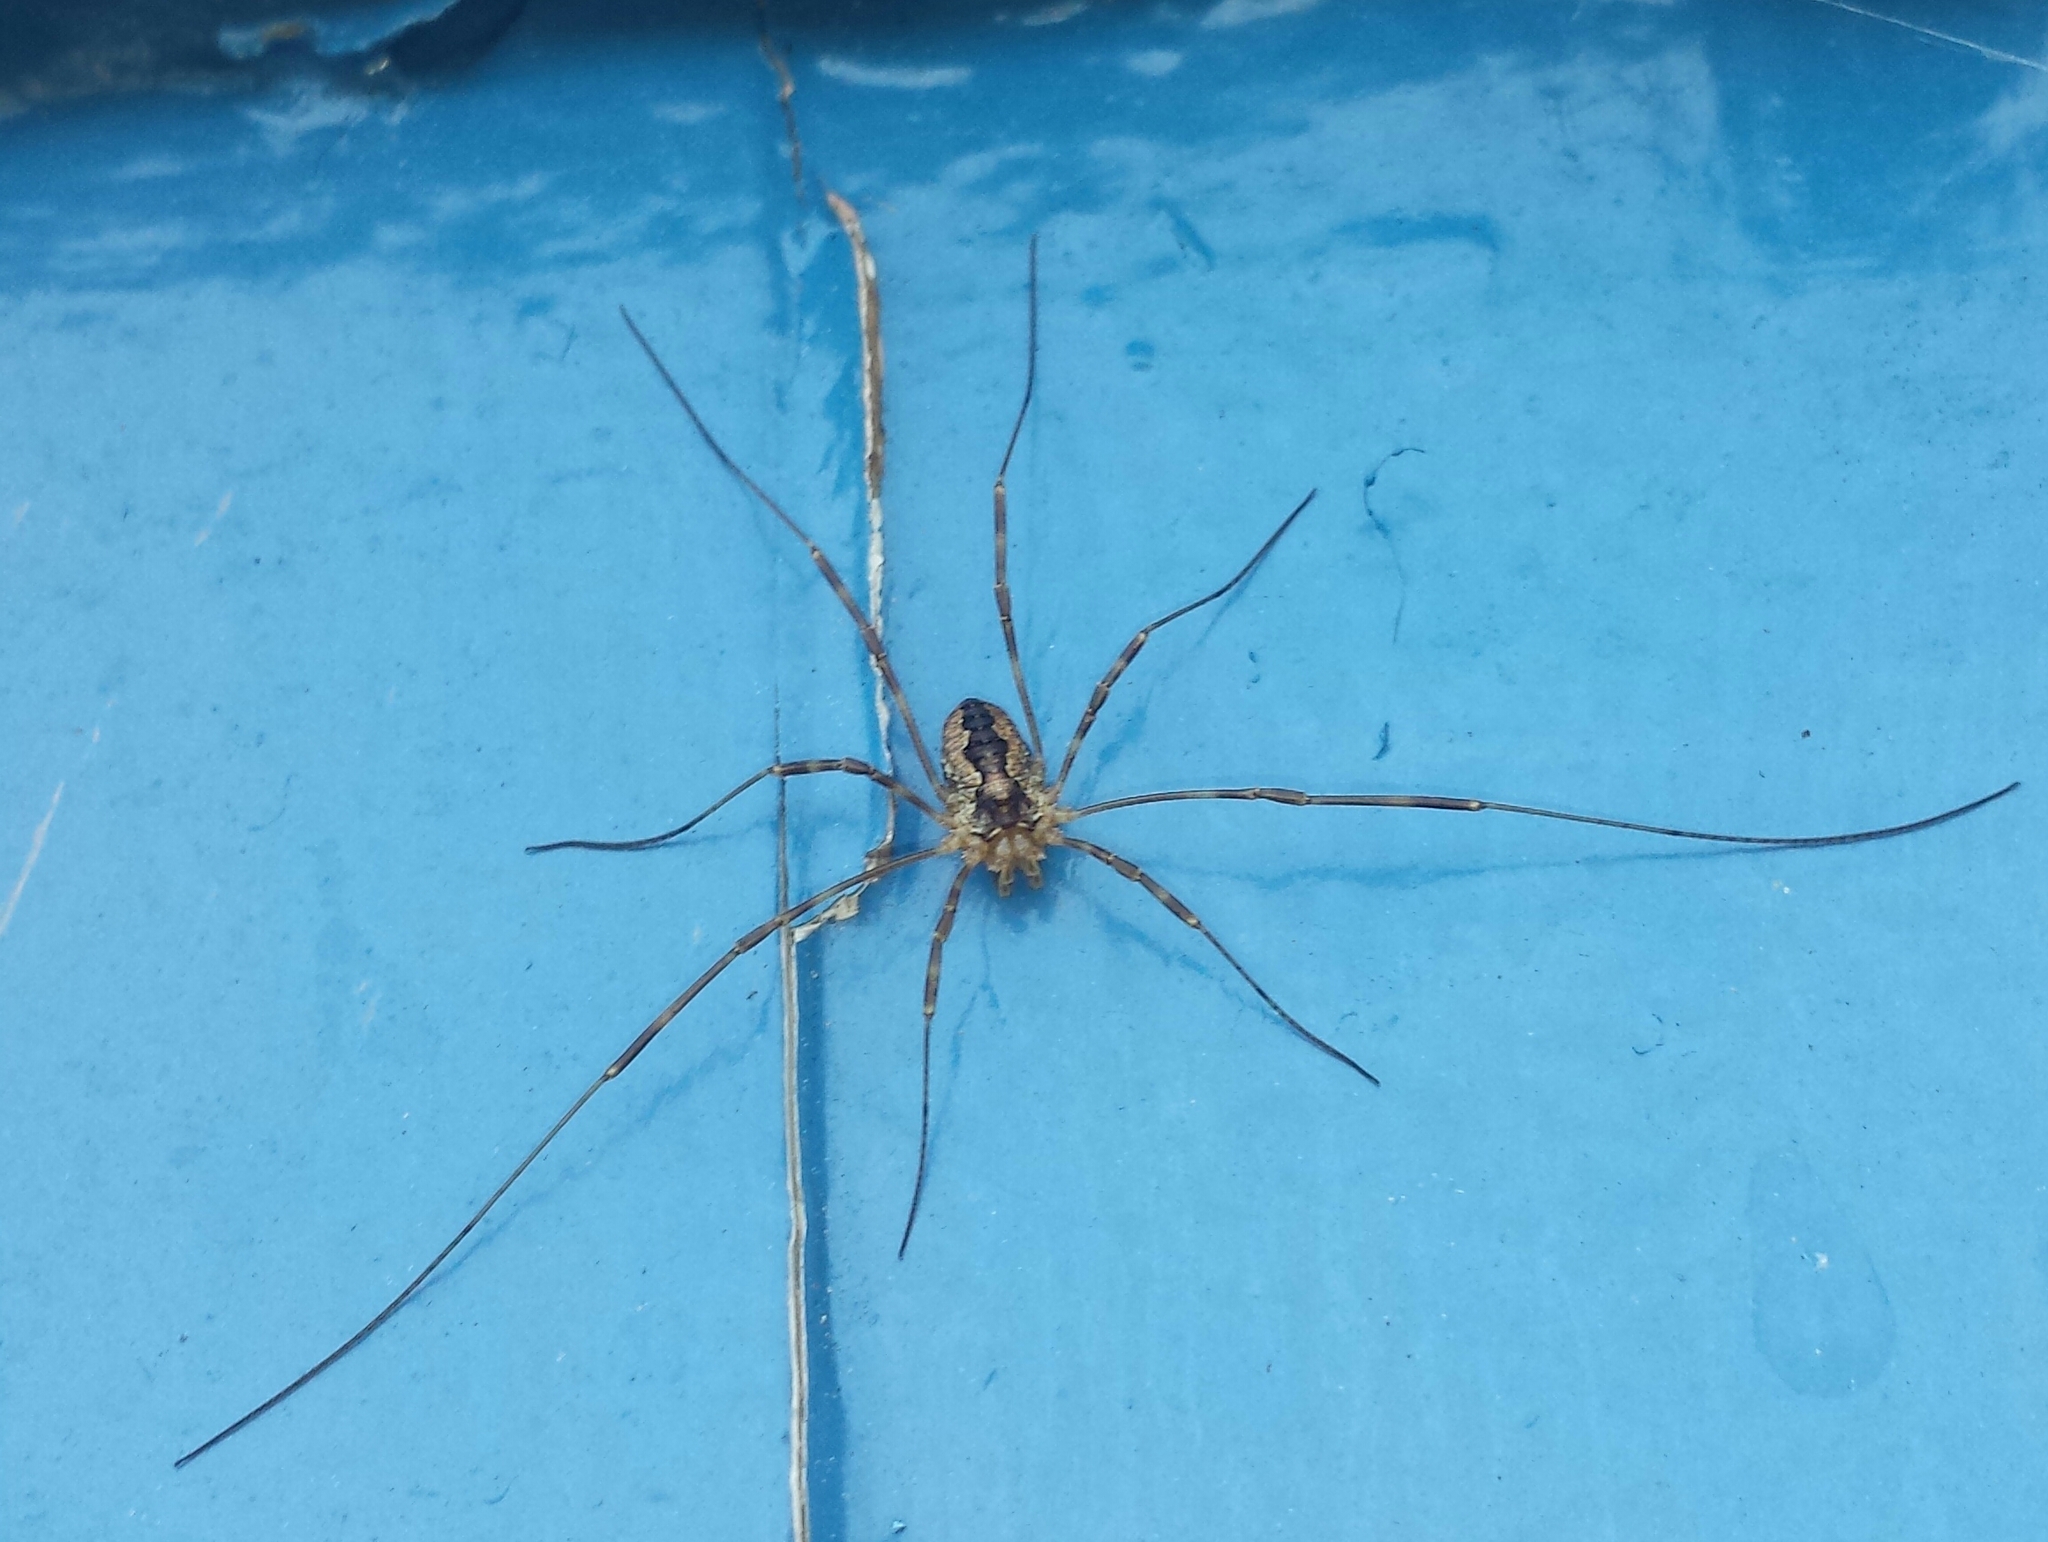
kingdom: Animalia
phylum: Arthropoda
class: Arachnida
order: Opiliones
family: Phalangiidae
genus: Odiellus
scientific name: Odiellus pictus
